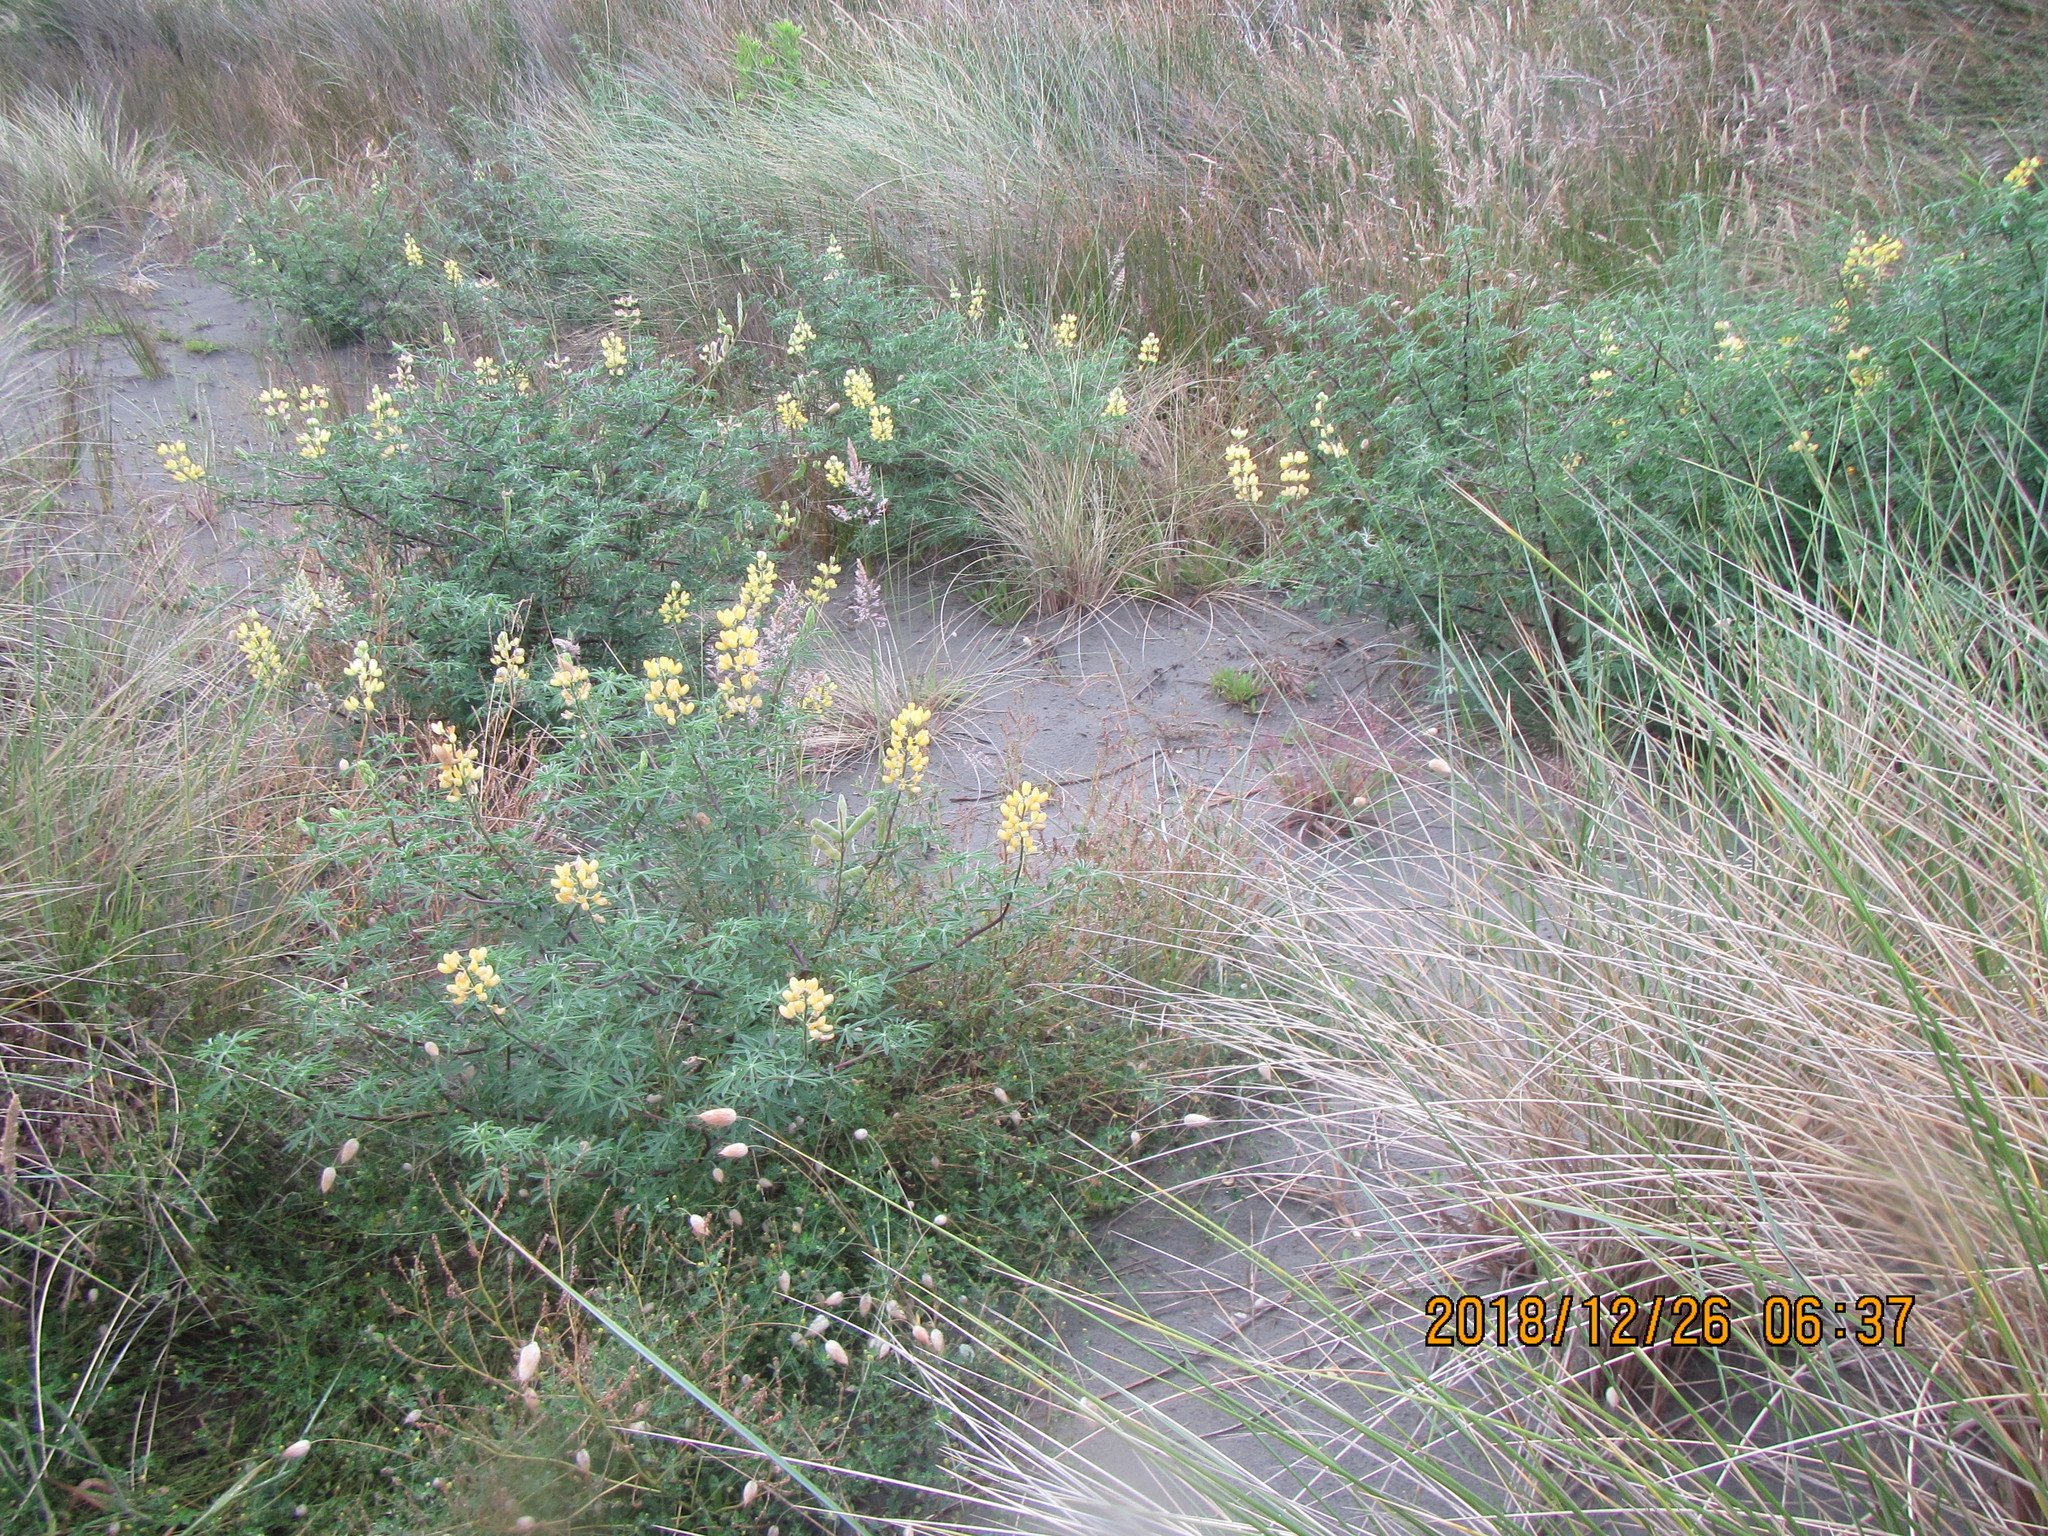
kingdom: Plantae
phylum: Tracheophyta
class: Magnoliopsida
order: Fabales
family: Fabaceae
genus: Lupinus
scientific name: Lupinus arboreus
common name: Yellow bush lupine
